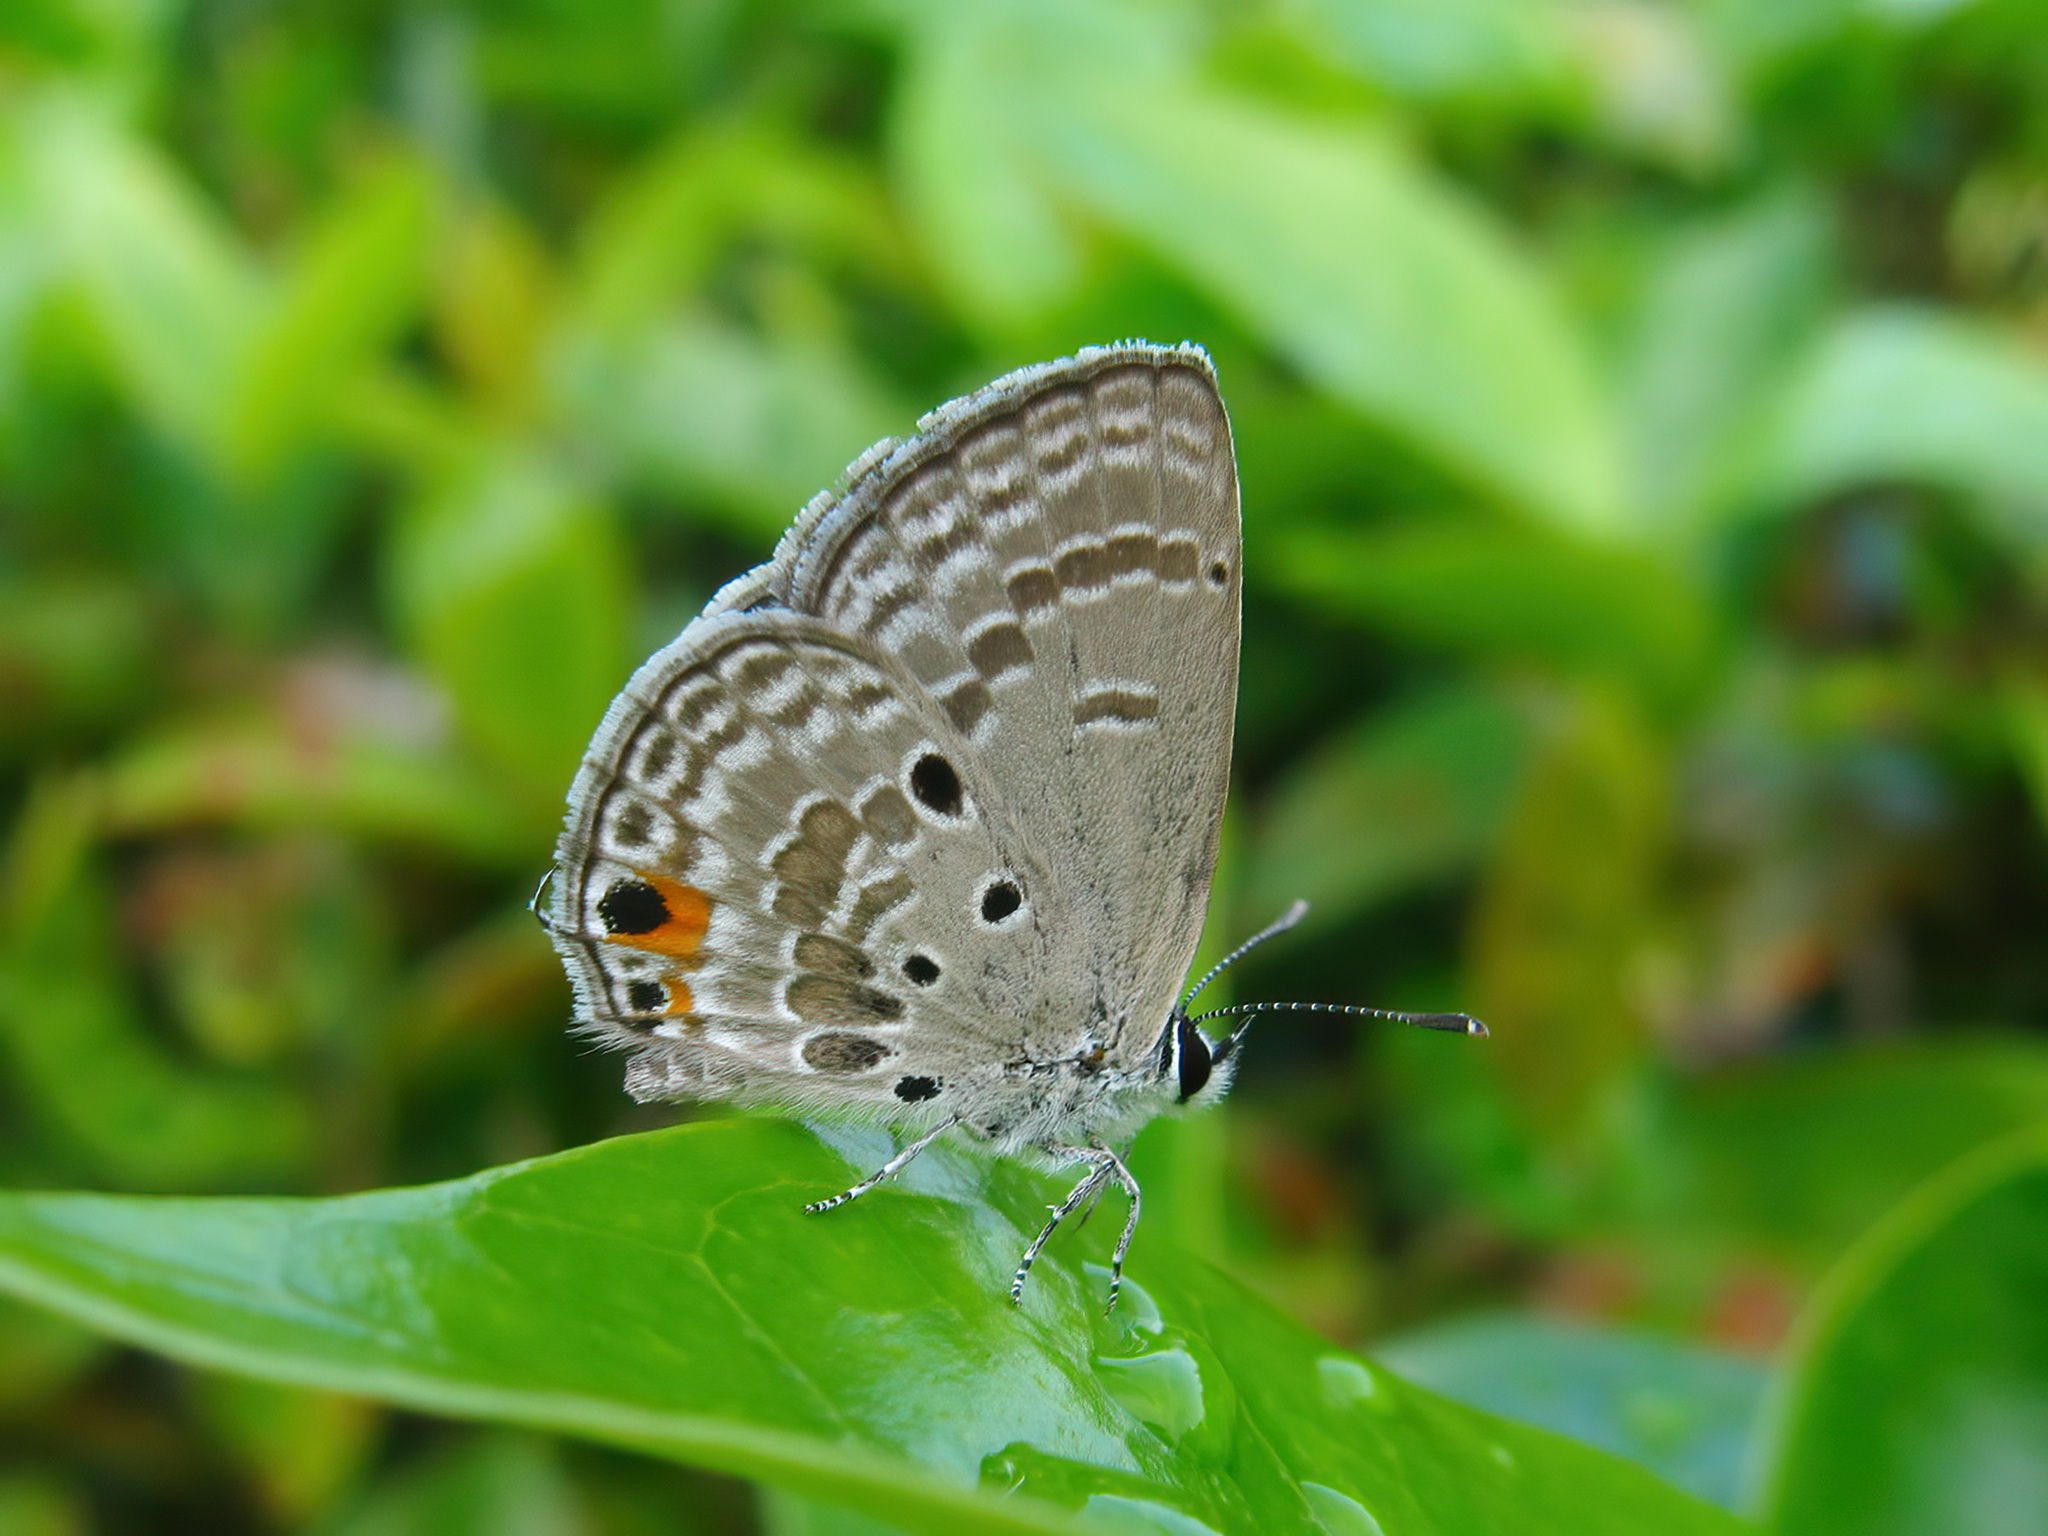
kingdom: Animalia
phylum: Arthropoda
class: Insecta
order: Lepidoptera
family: Lycaenidae
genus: Luthrodes
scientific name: Luthrodes pandava
